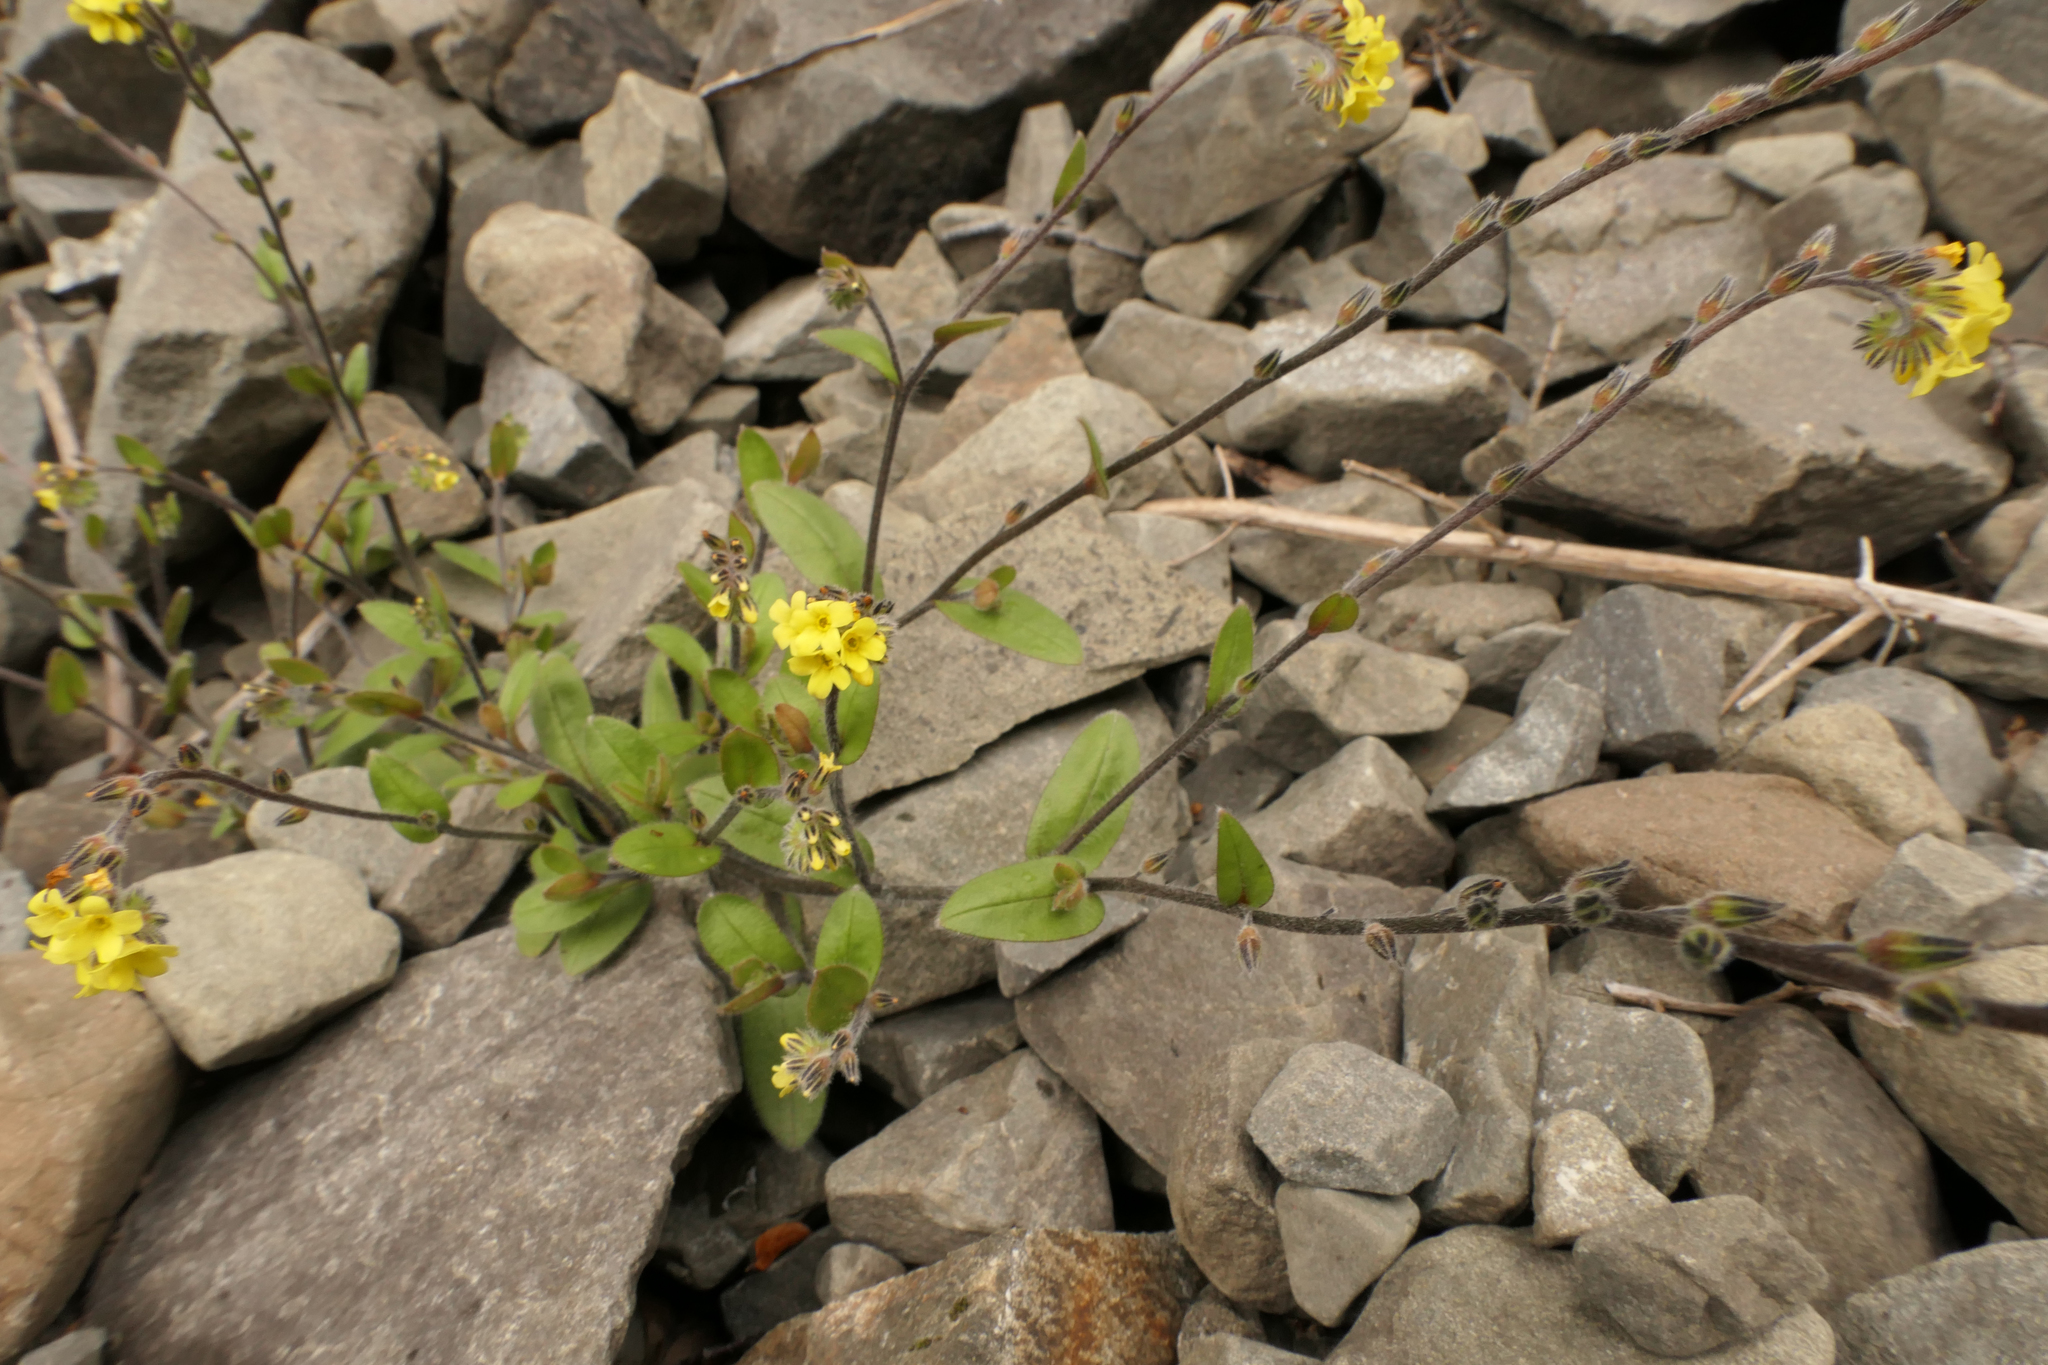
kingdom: Plantae
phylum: Tracheophyta
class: Magnoliopsida
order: Boraginales
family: Boraginaceae
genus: Myosotis
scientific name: Myosotis australis
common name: Australian forget-me-not
